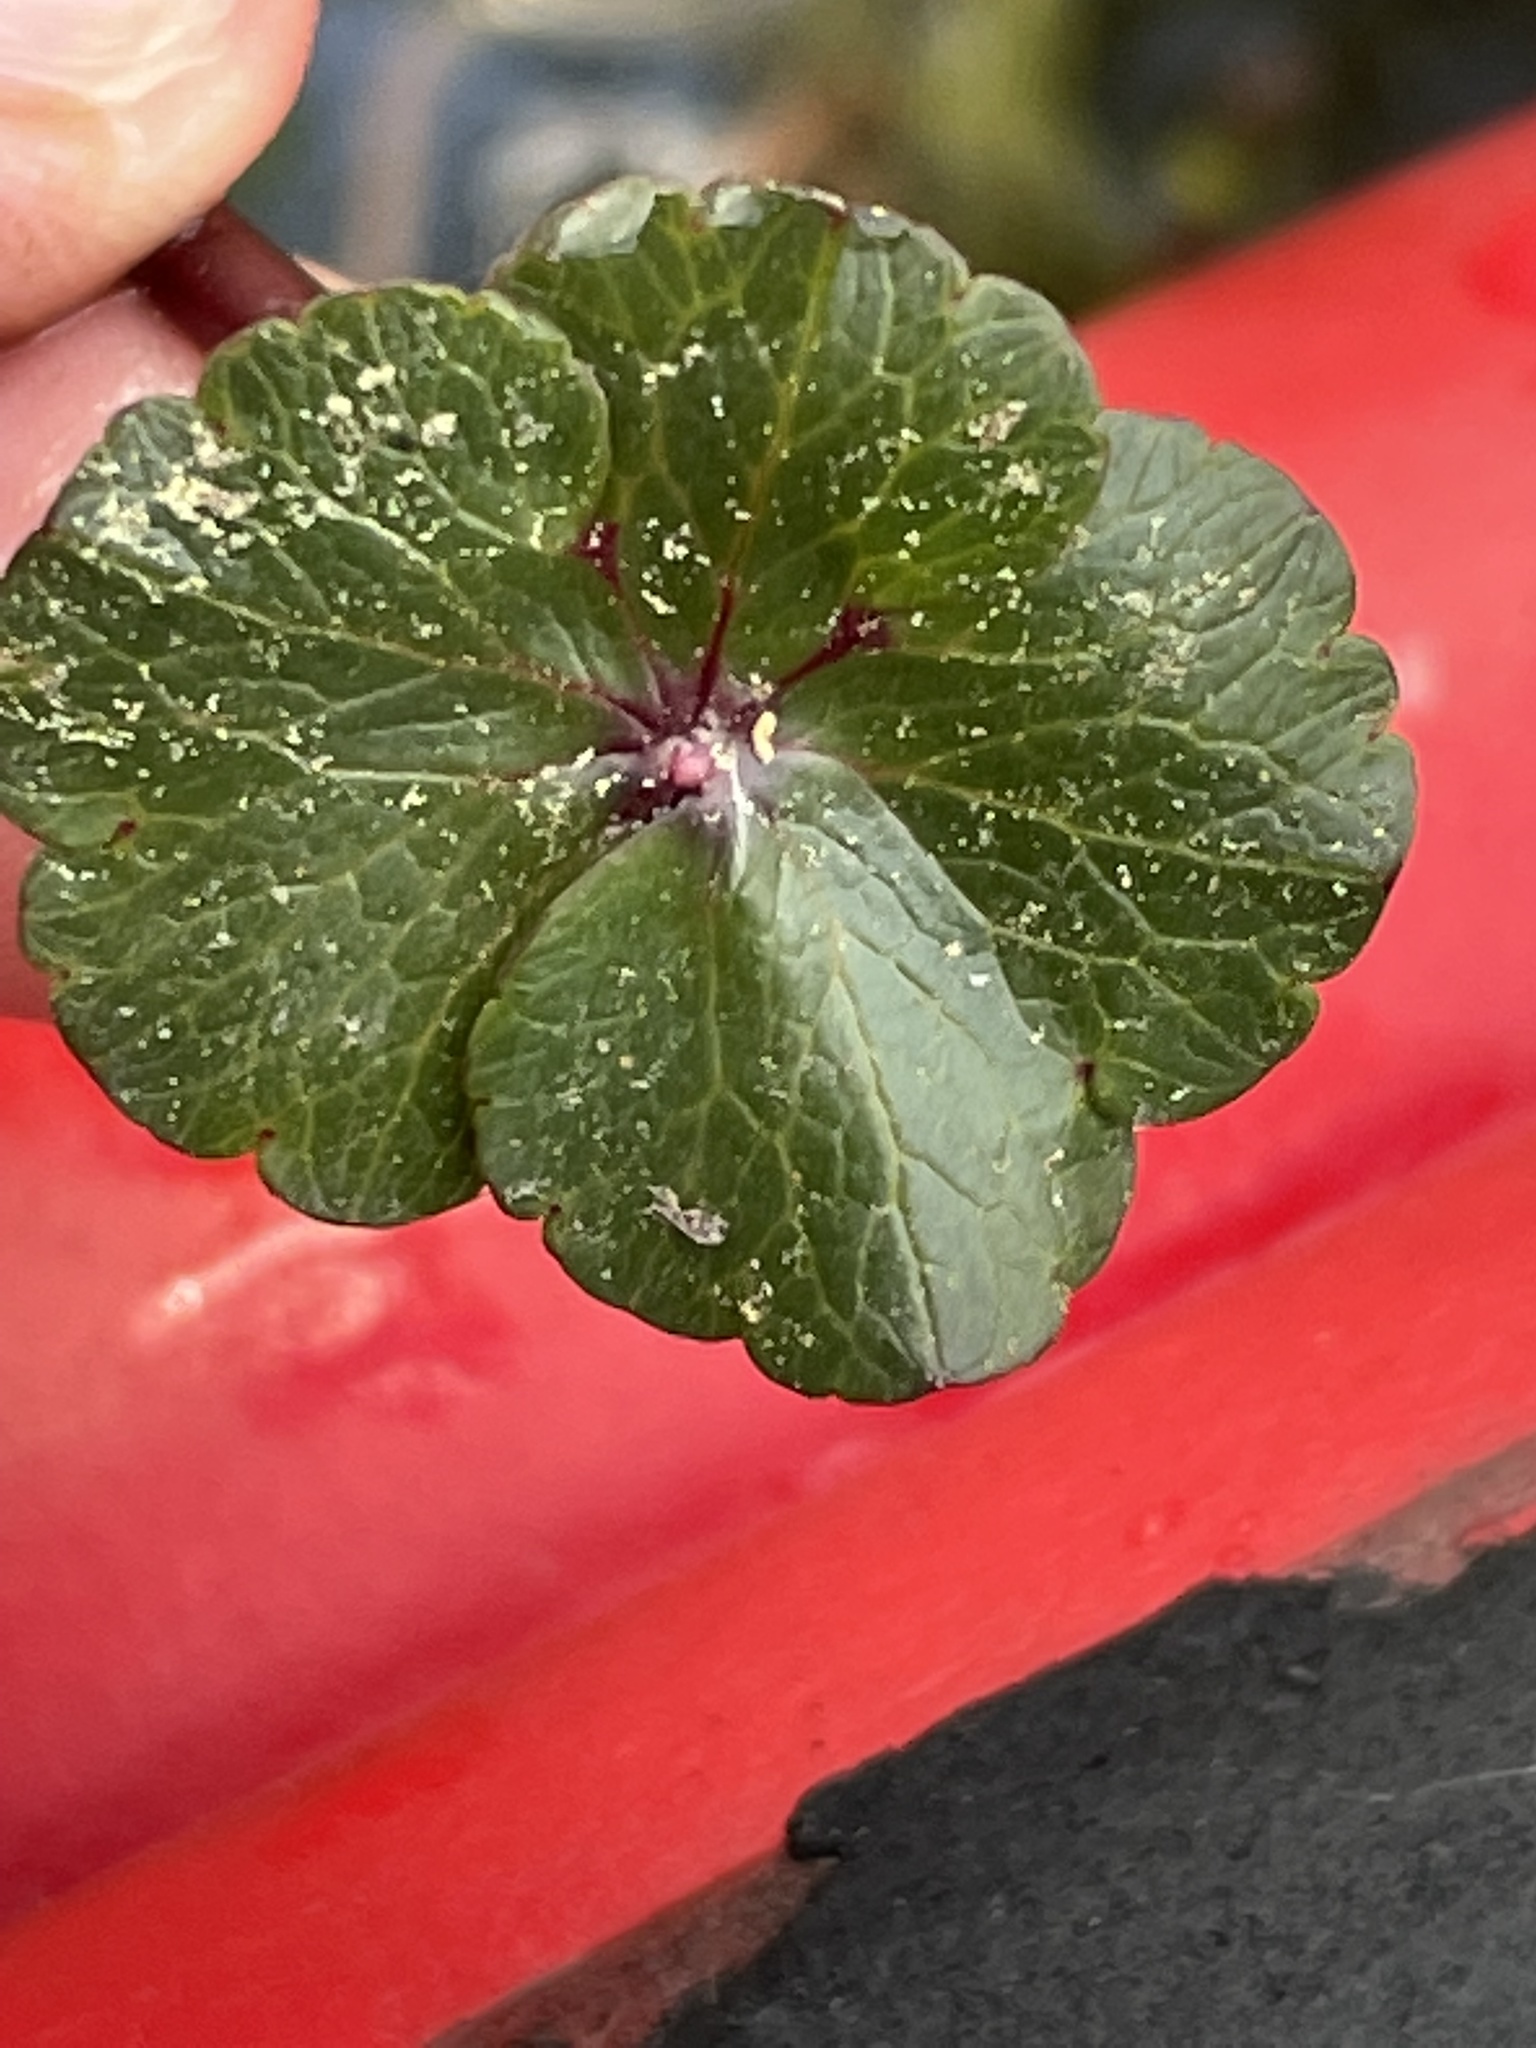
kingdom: Plantae
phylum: Tracheophyta
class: Magnoliopsida
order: Apiales
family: Araliaceae
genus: Hydrocotyle
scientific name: Hydrocotyle ranunculoides
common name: Floating pennywort
